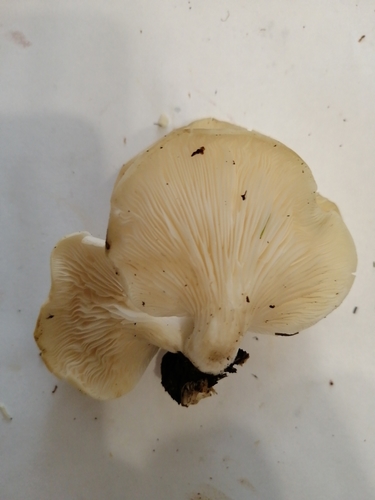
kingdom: Fungi
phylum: Basidiomycota
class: Agaricomycetes
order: Agaricales
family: Pleurotaceae
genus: Pleurotus
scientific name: Pleurotus pulmonarius
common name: Pale oyster
